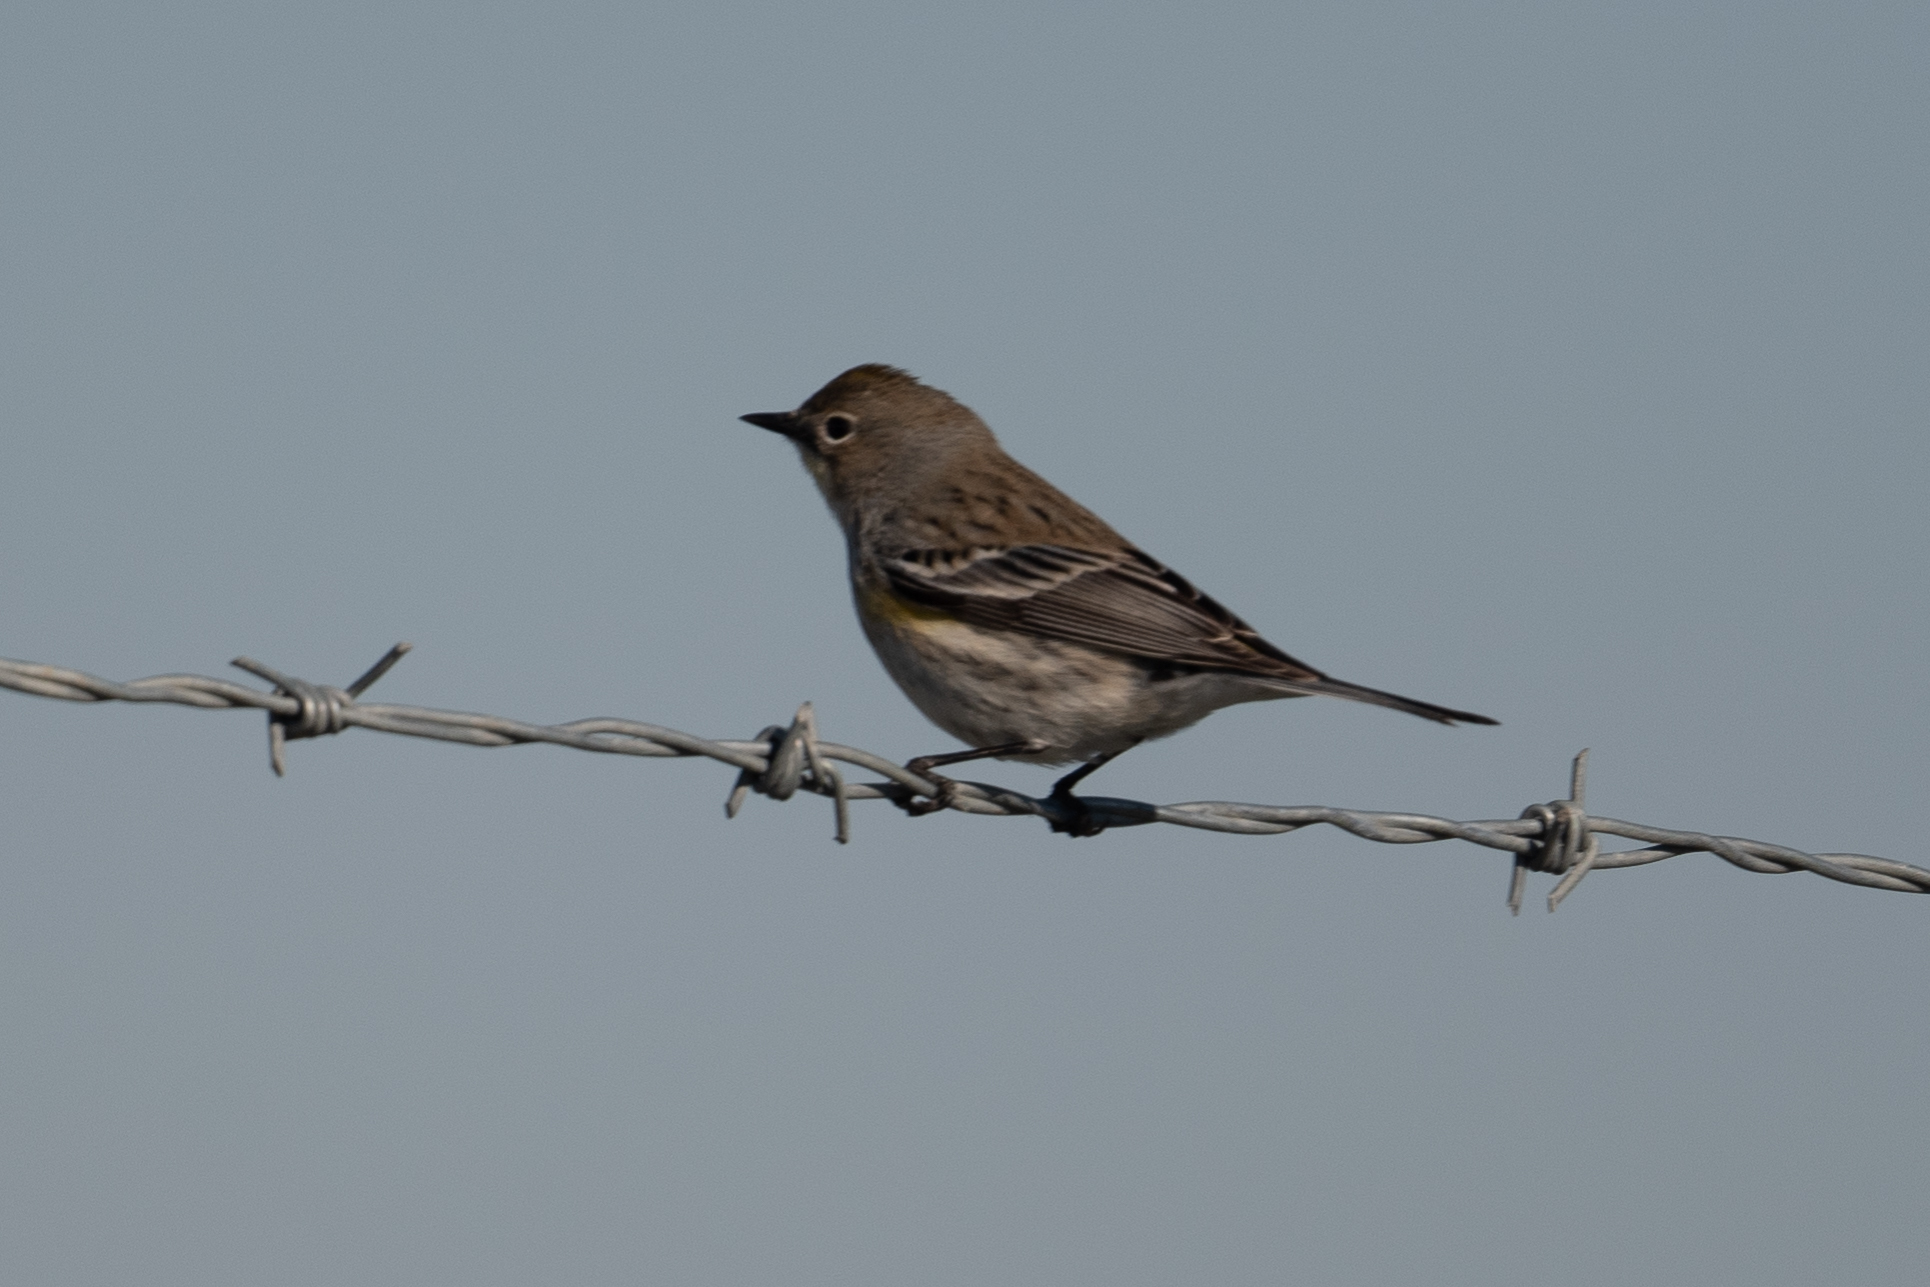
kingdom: Animalia
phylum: Chordata
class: Aves
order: Passeriformes
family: Parulidae
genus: Setophaga
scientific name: Setophaga coronata
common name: Myrtle warbler
